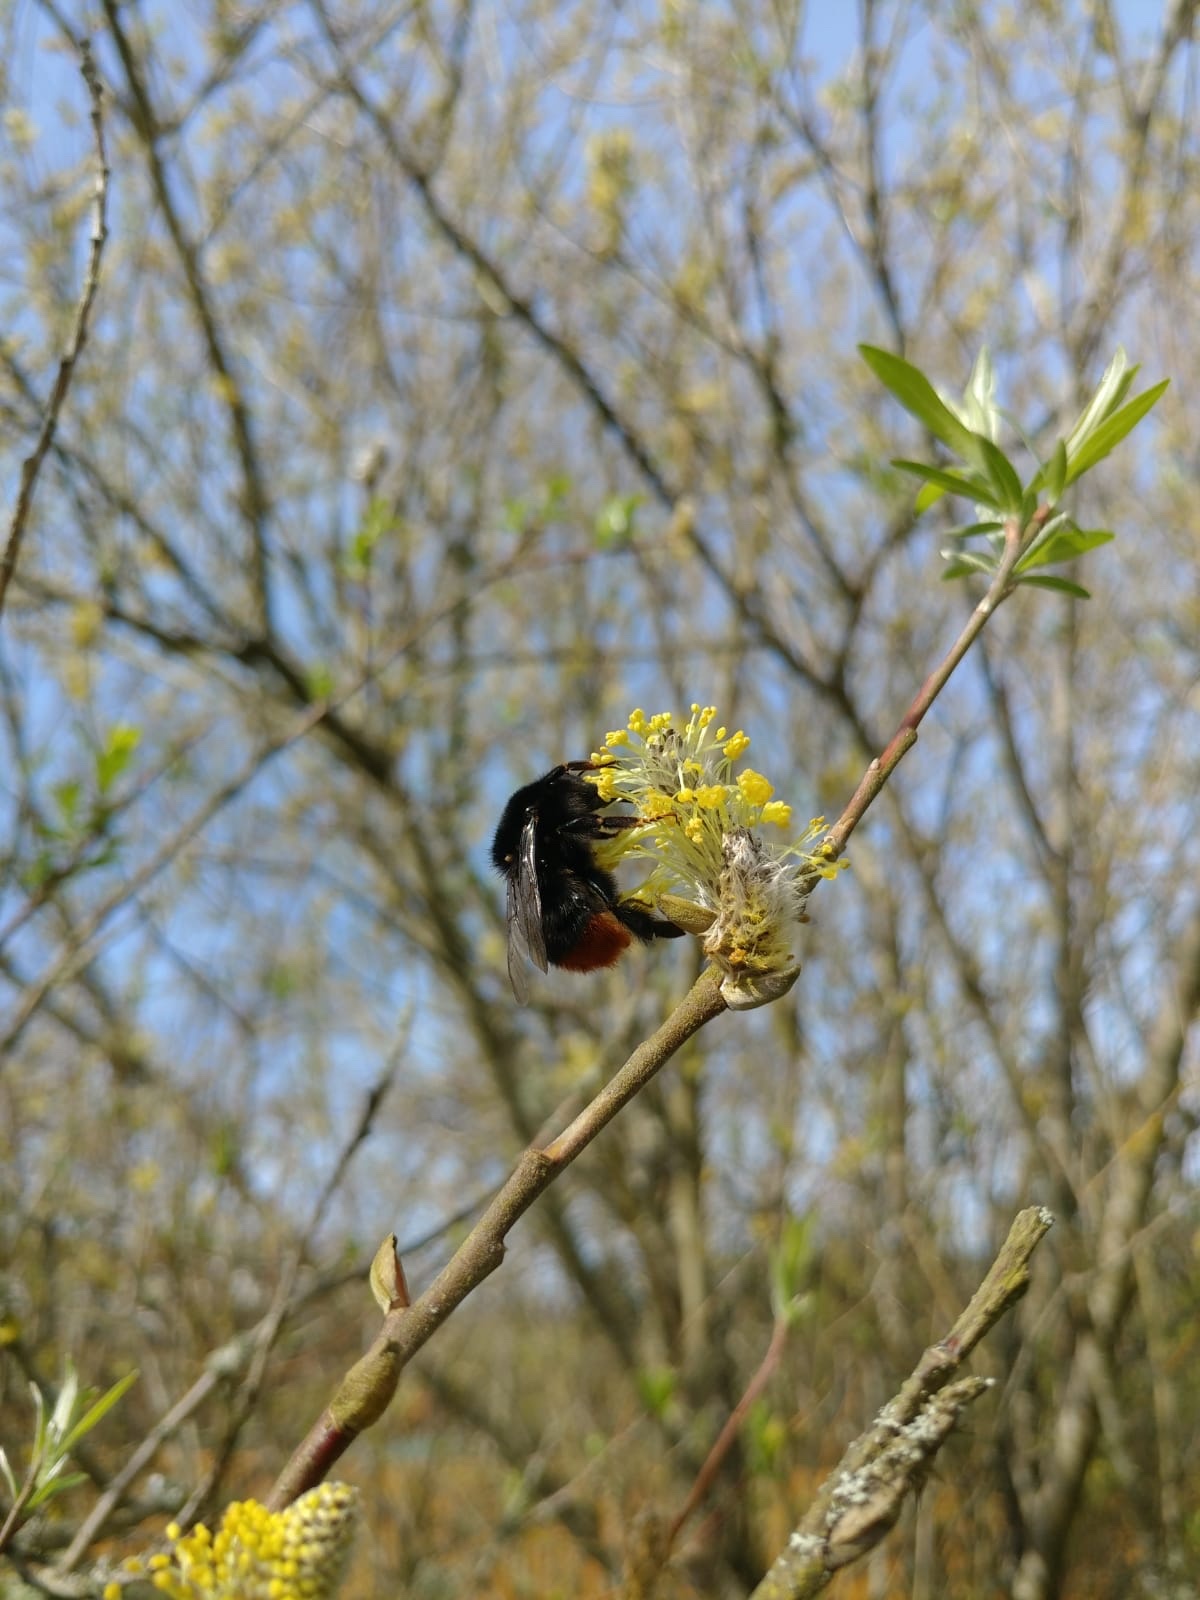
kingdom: Animalia
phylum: Arthropoda
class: Insecta
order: Hymenoptera
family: Apidae
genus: Bombus
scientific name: Bombus lapidarius
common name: Large red-tailed humble-bee
